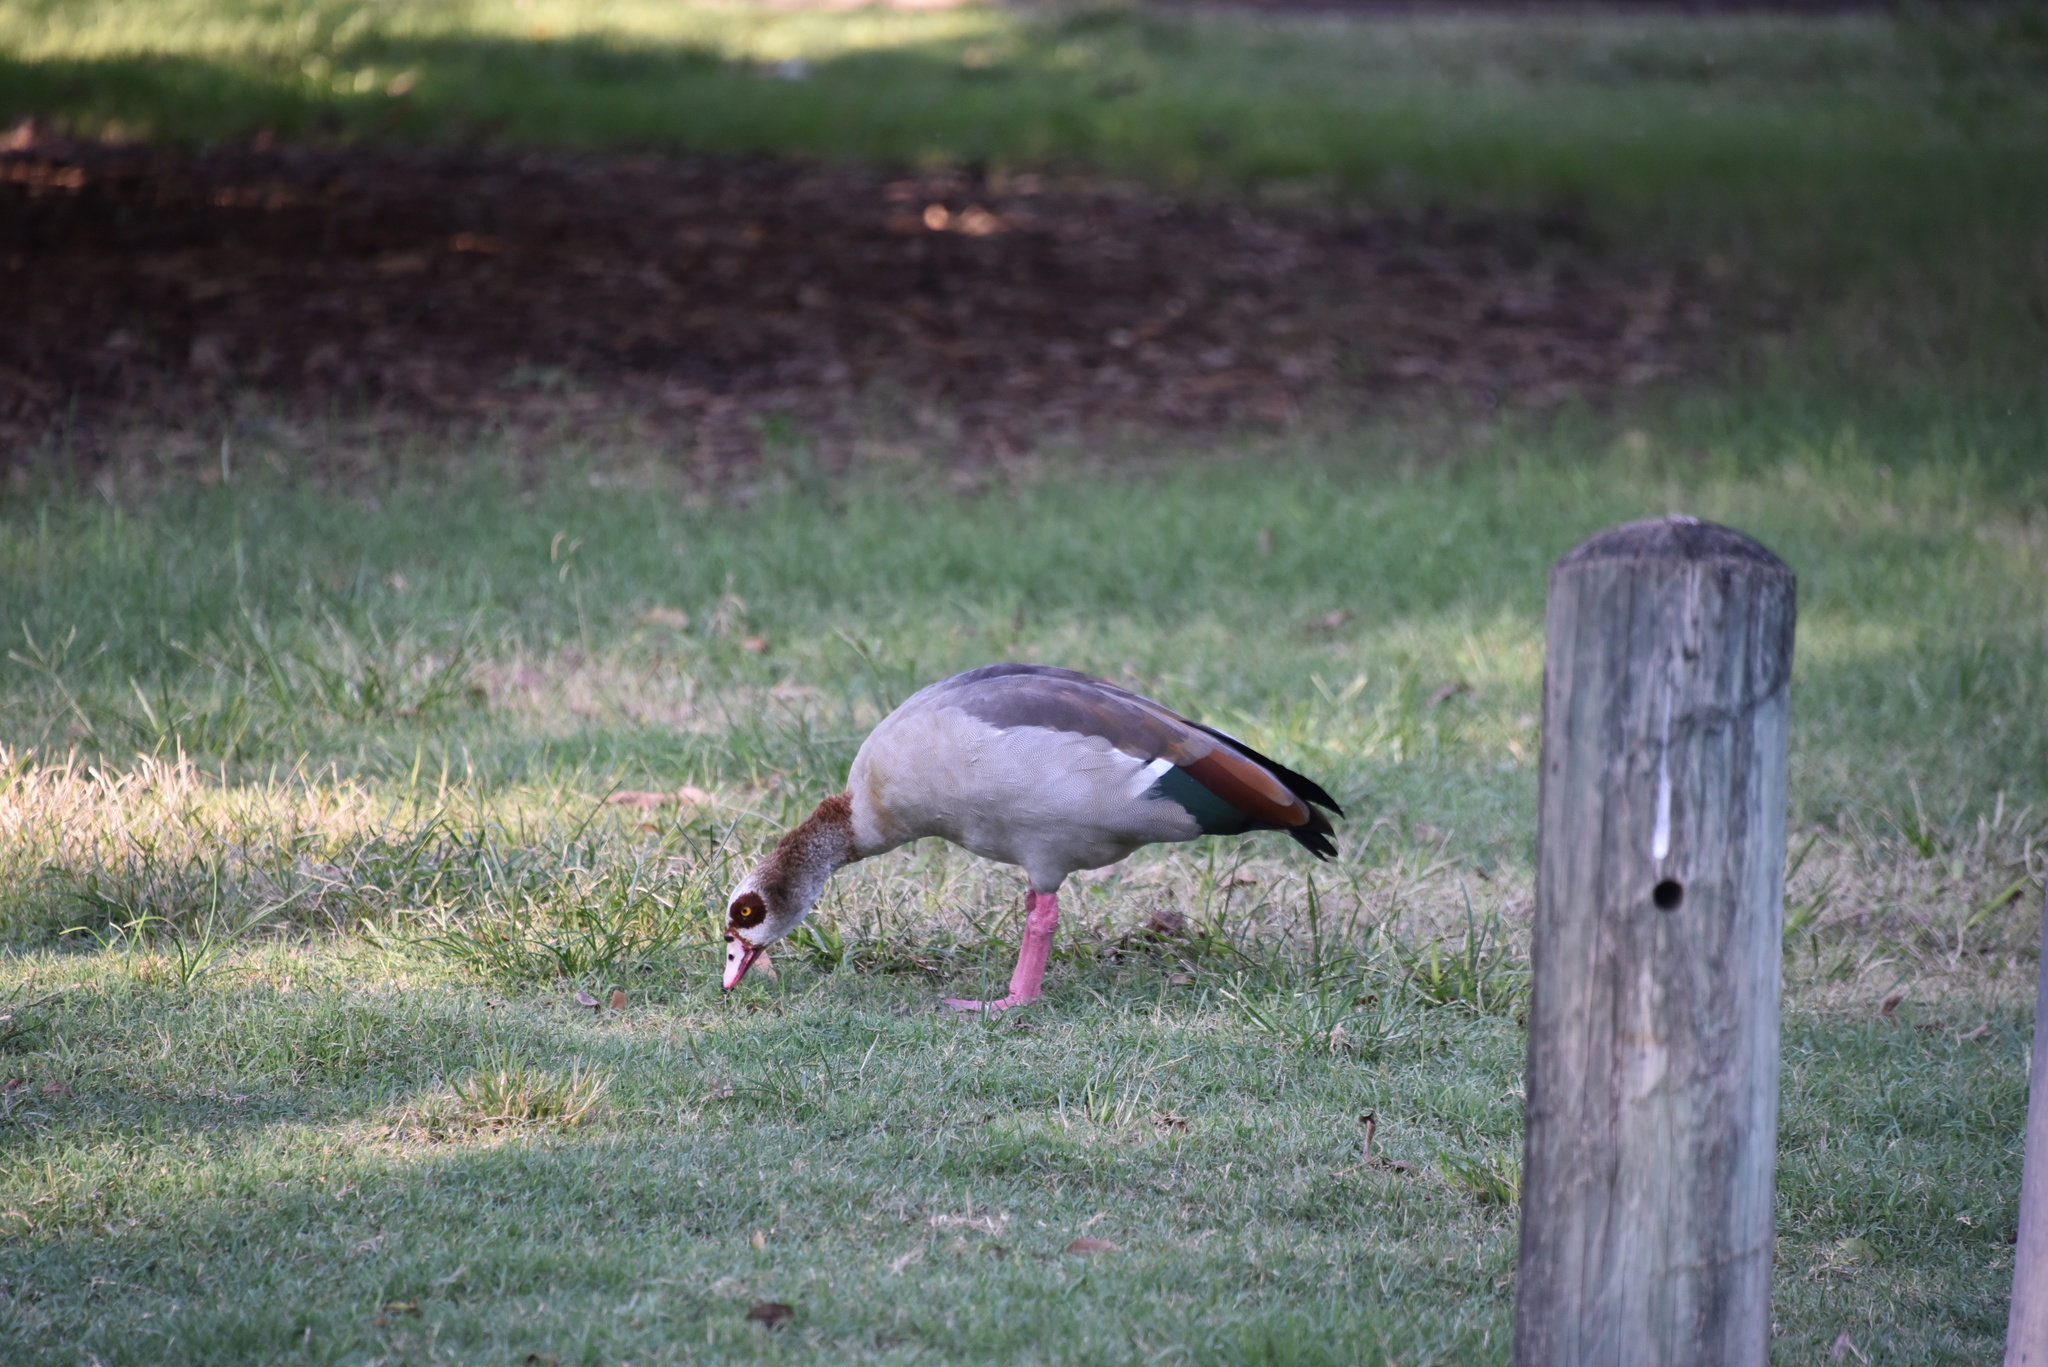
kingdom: Animalia
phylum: Chordata
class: Aves
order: Anseriformes
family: Anatidae
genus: Alopochen
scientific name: Alopochen aegyptiaca
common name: Egyptian goose
